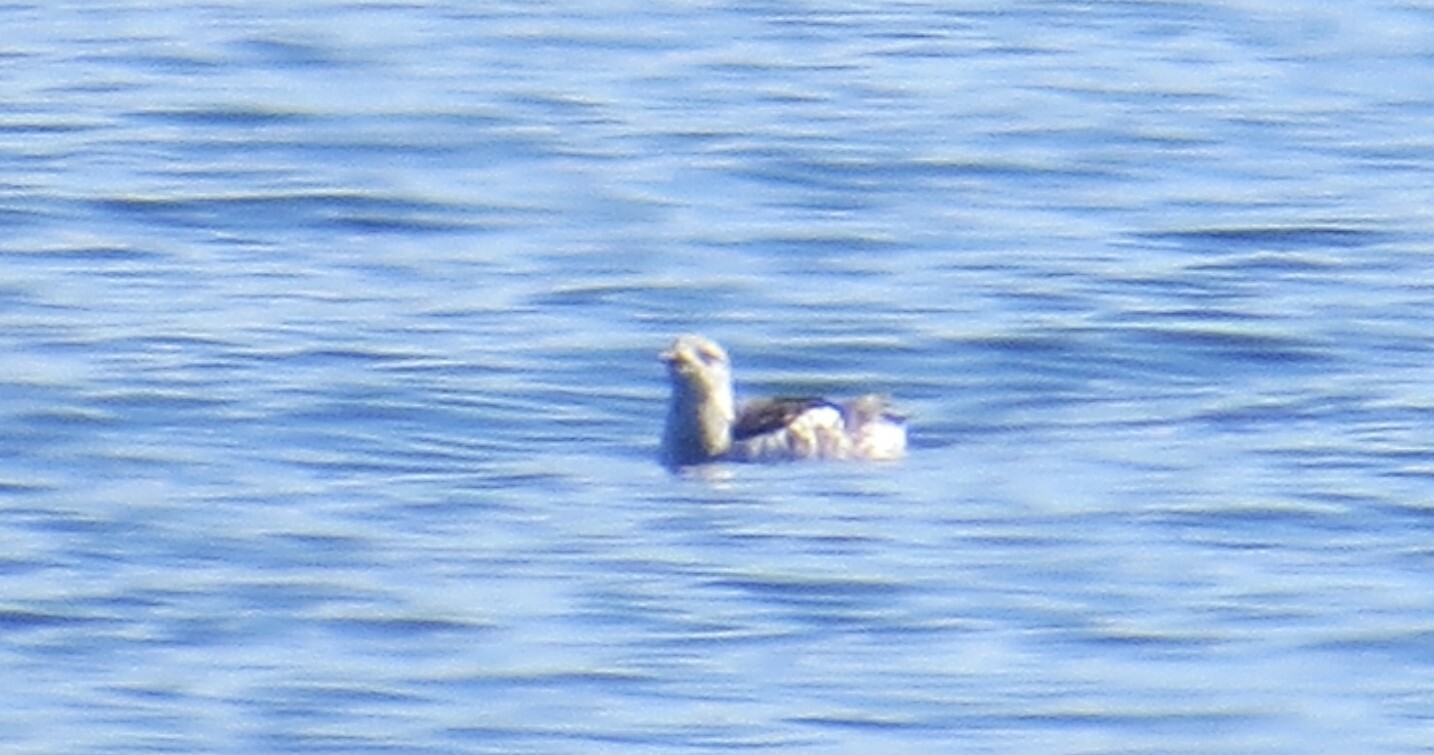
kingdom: Animalia
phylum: Chordata
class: Aves
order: Charadriiformes
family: Alcidae
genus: Cepphus
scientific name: Cepphus grylle
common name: Black guillemot
